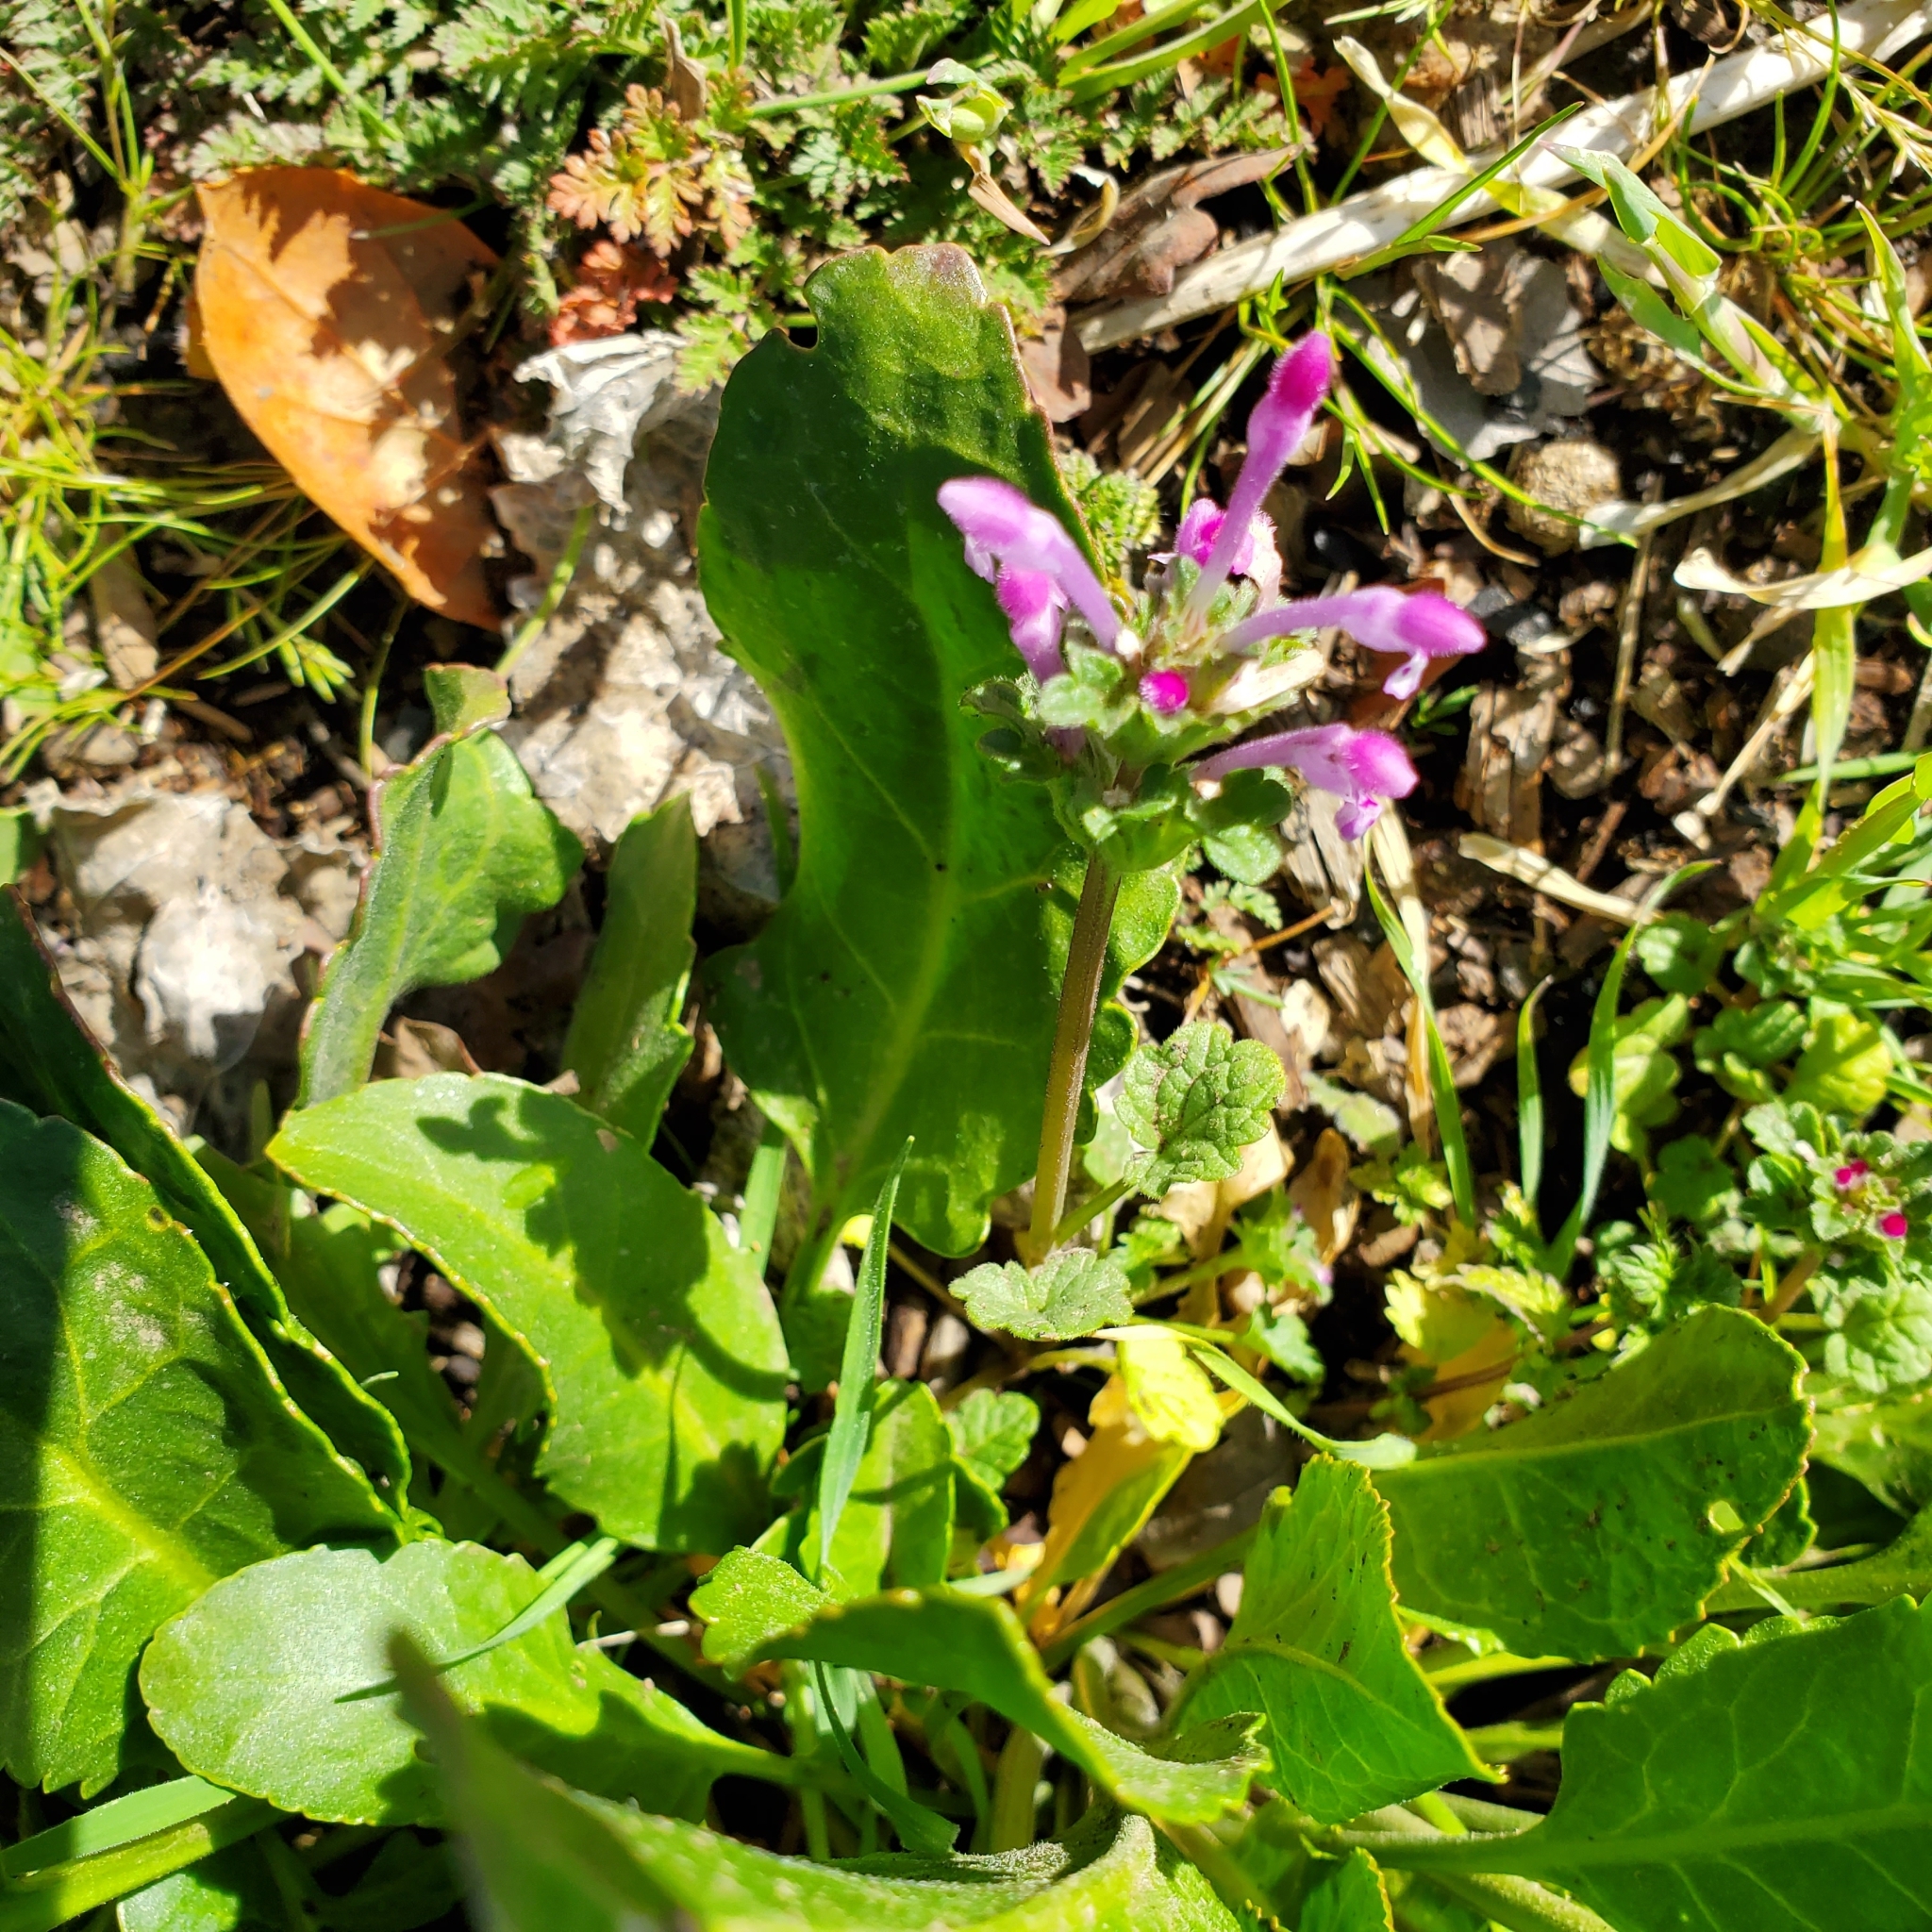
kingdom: Plantae
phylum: Tracheophyta
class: Magnoliopsida
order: Lamiales
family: Lamiaceae
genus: Lamium
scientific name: Lamium amplexicaule
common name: Henbit dead-nettle
